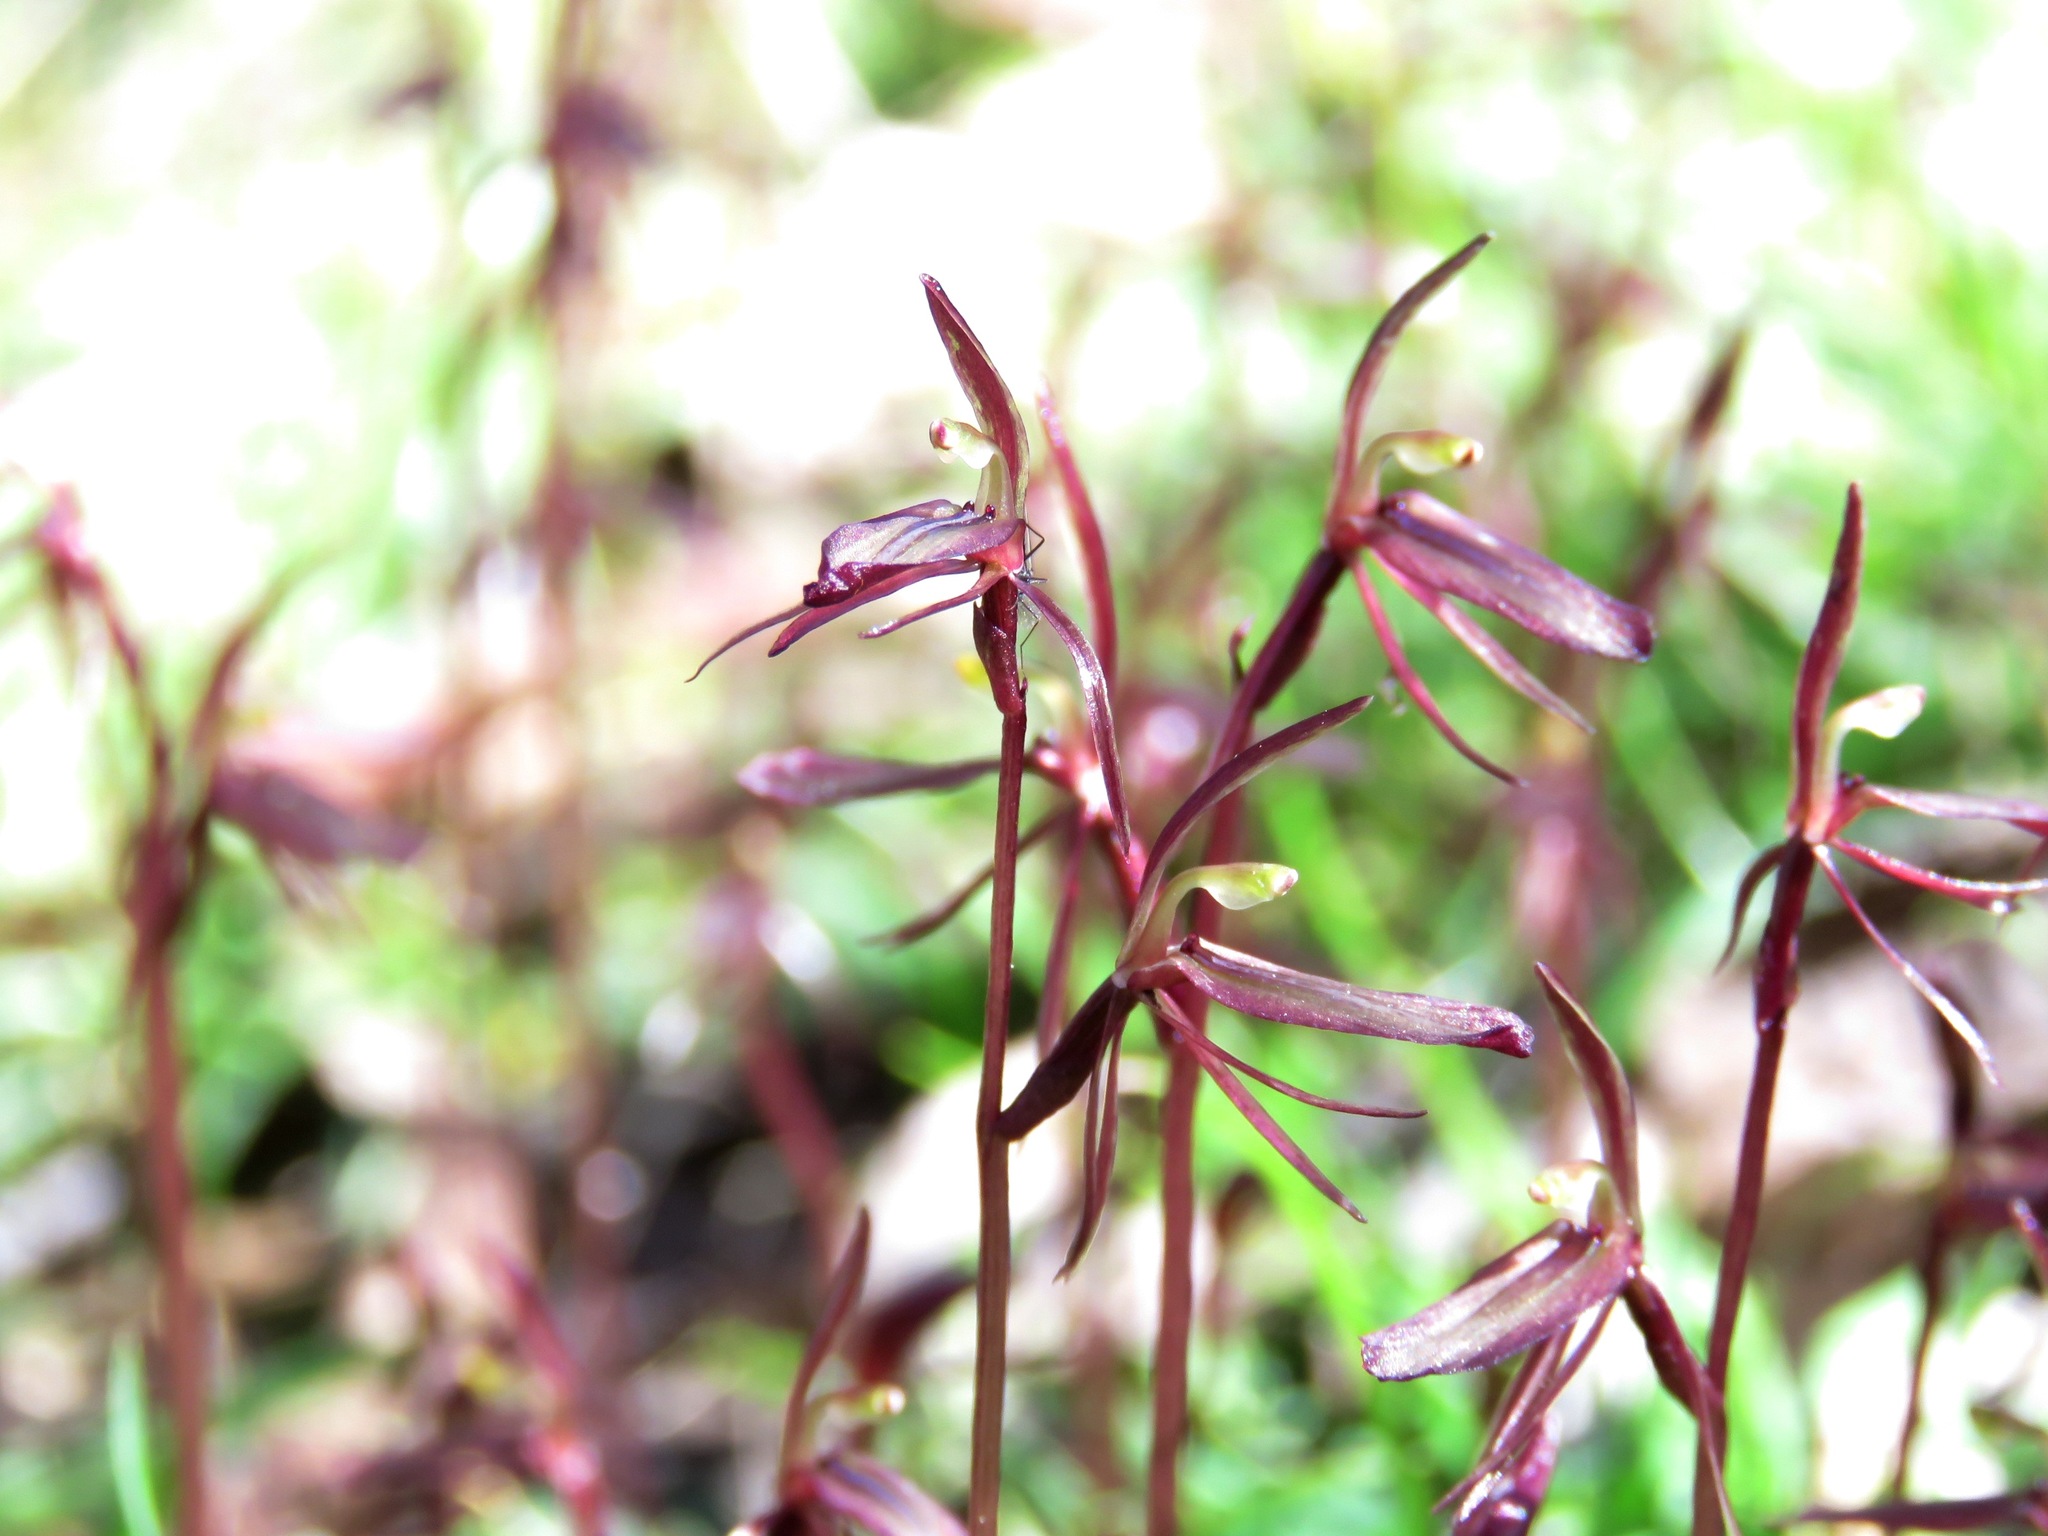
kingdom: Plantae
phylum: Tracheophyta
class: Liliopsida
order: Asparagales
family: Orchidaceae
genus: Cyrtostylis
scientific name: Cyrtostylis reniformis
